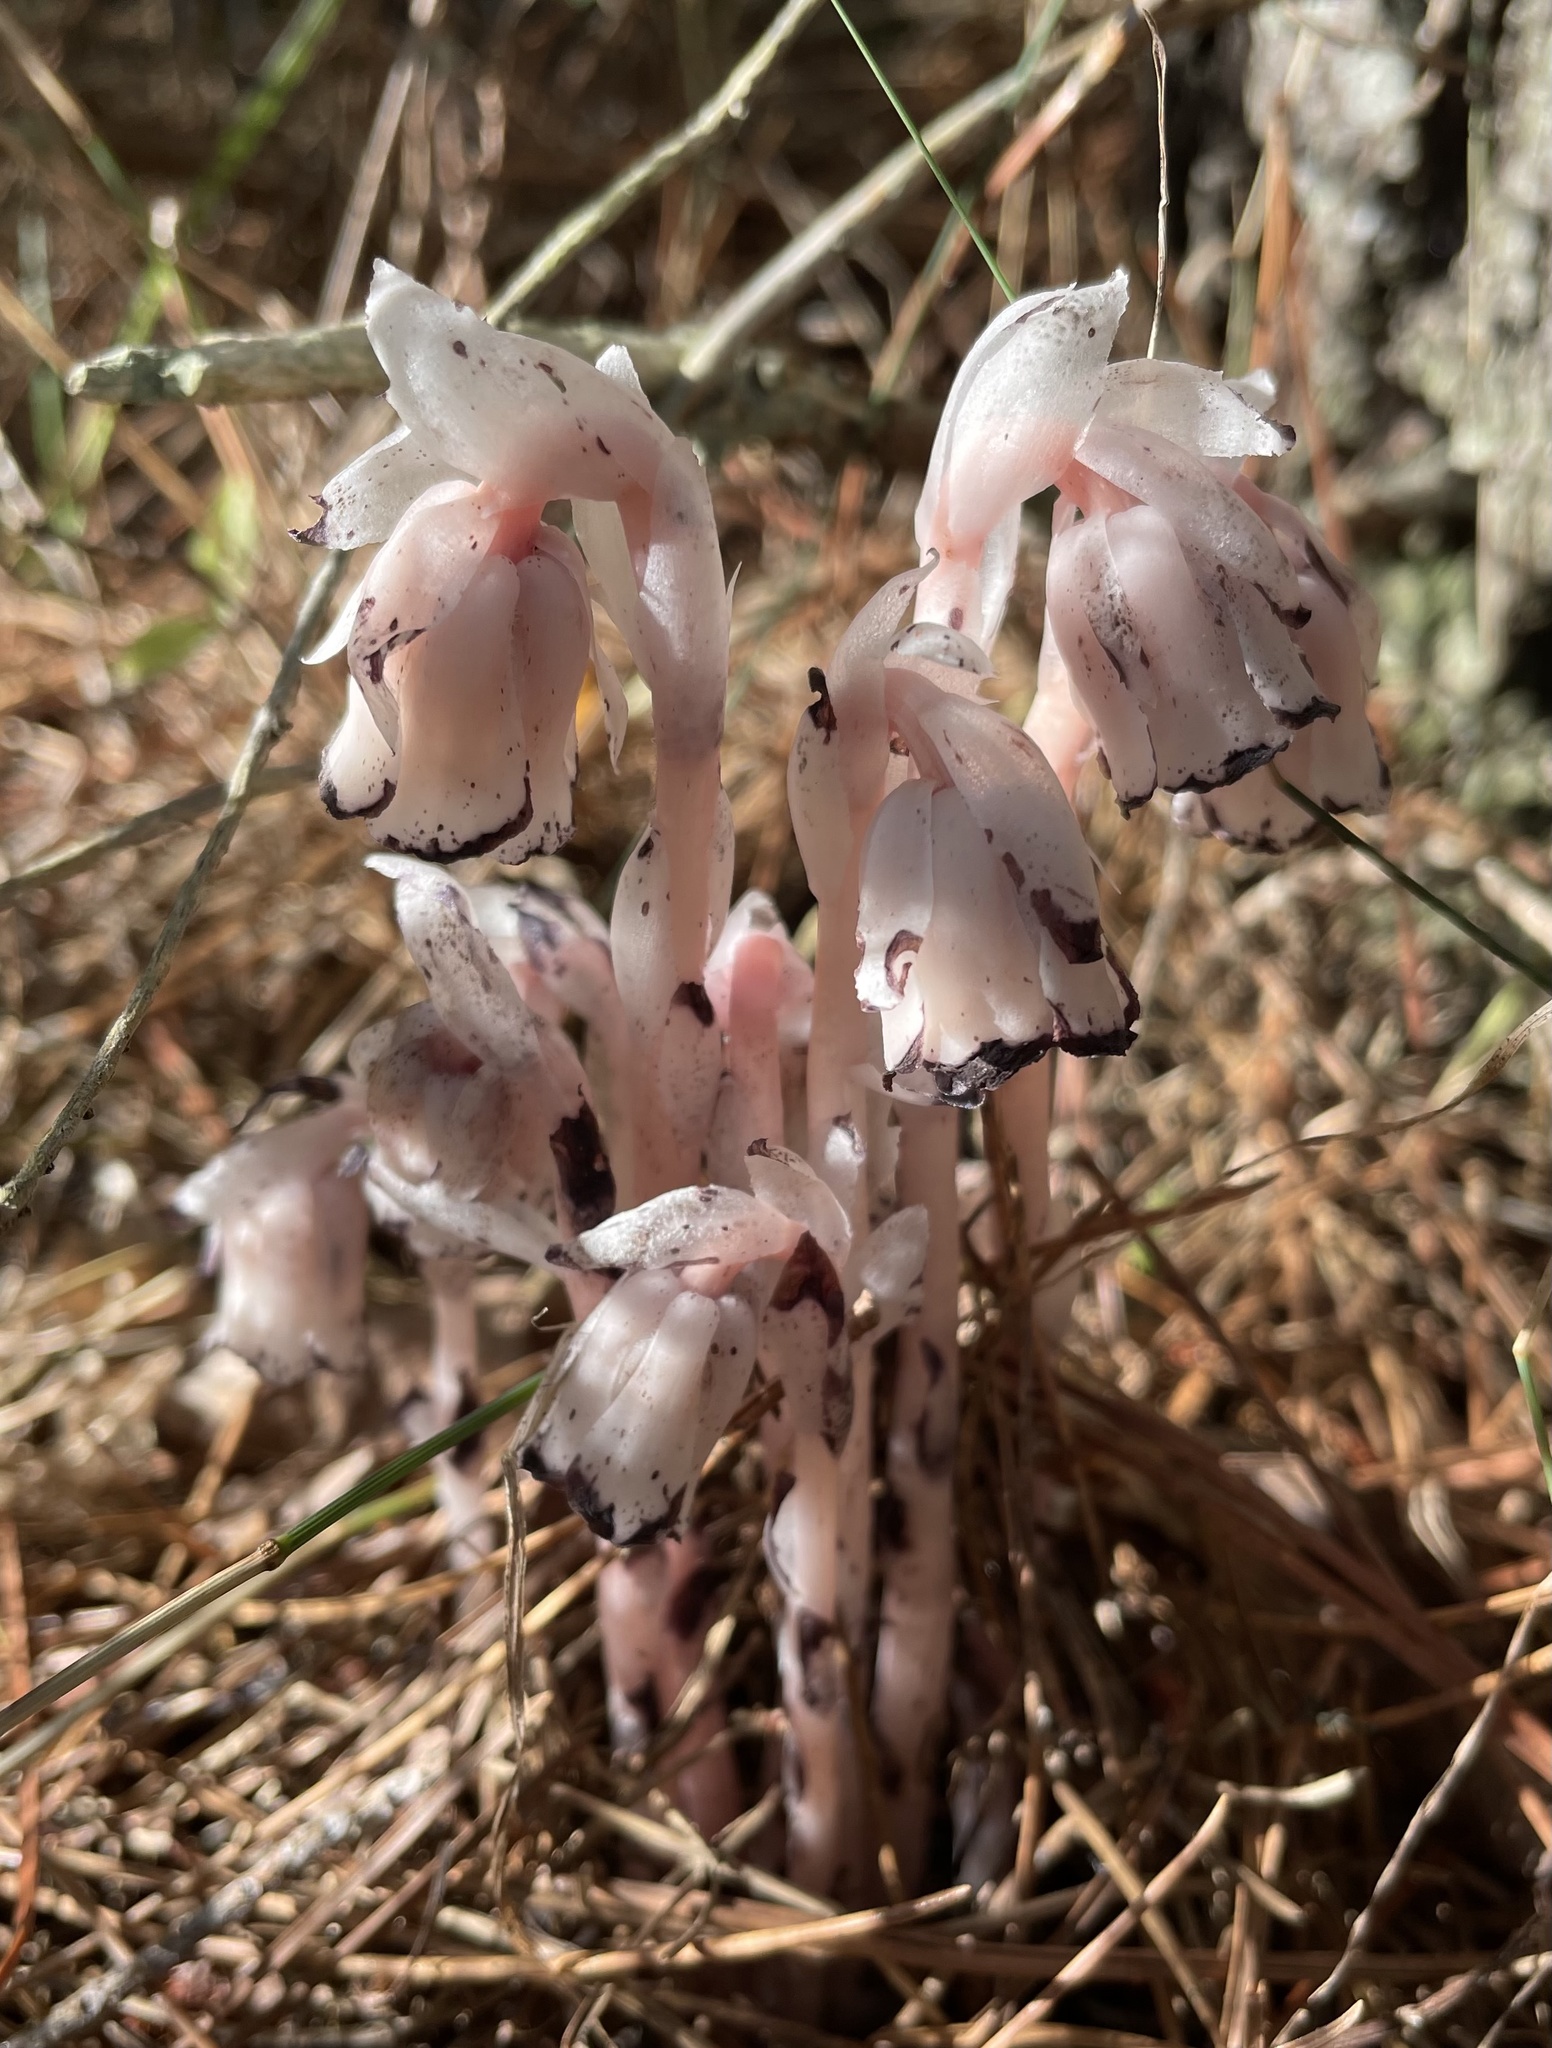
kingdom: Plantae
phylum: Tracheophyta
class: Magnoliopsida
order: Ericales
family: Ericaceae
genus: Monotropa
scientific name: Monotropa uniflora
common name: Convulsion root
